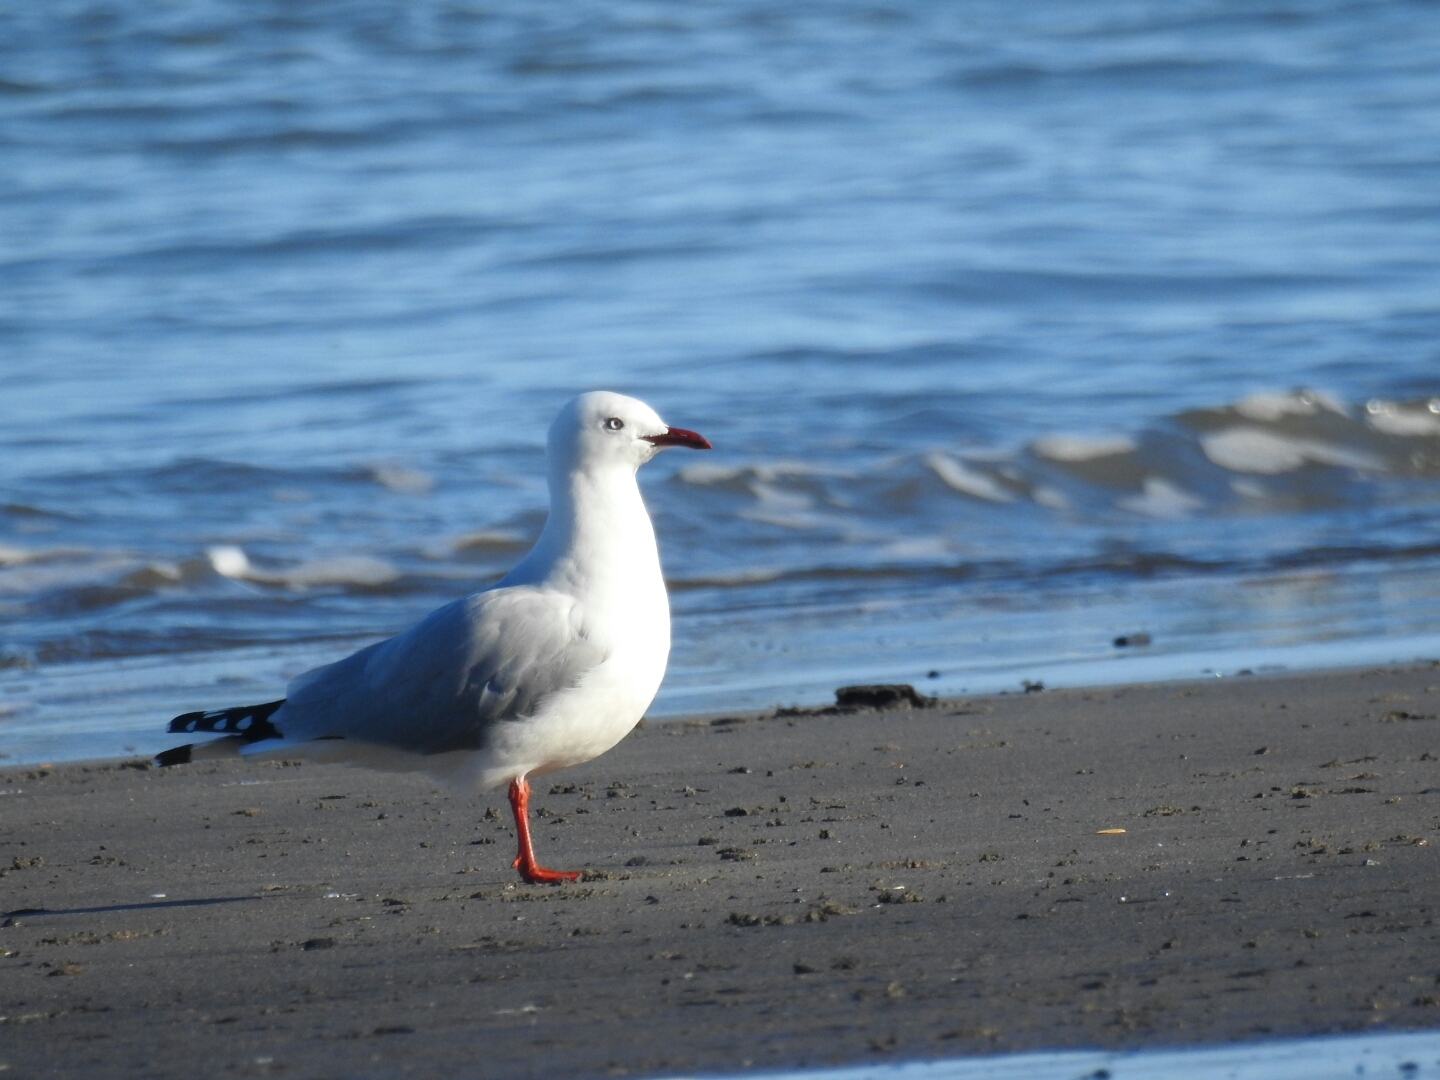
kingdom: Animalia
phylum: Chordata
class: Aves
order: Charadriiformes
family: Laridae
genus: Chroicocephalus
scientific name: Chroicocephalus novaehollandiae
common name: Silver gull
